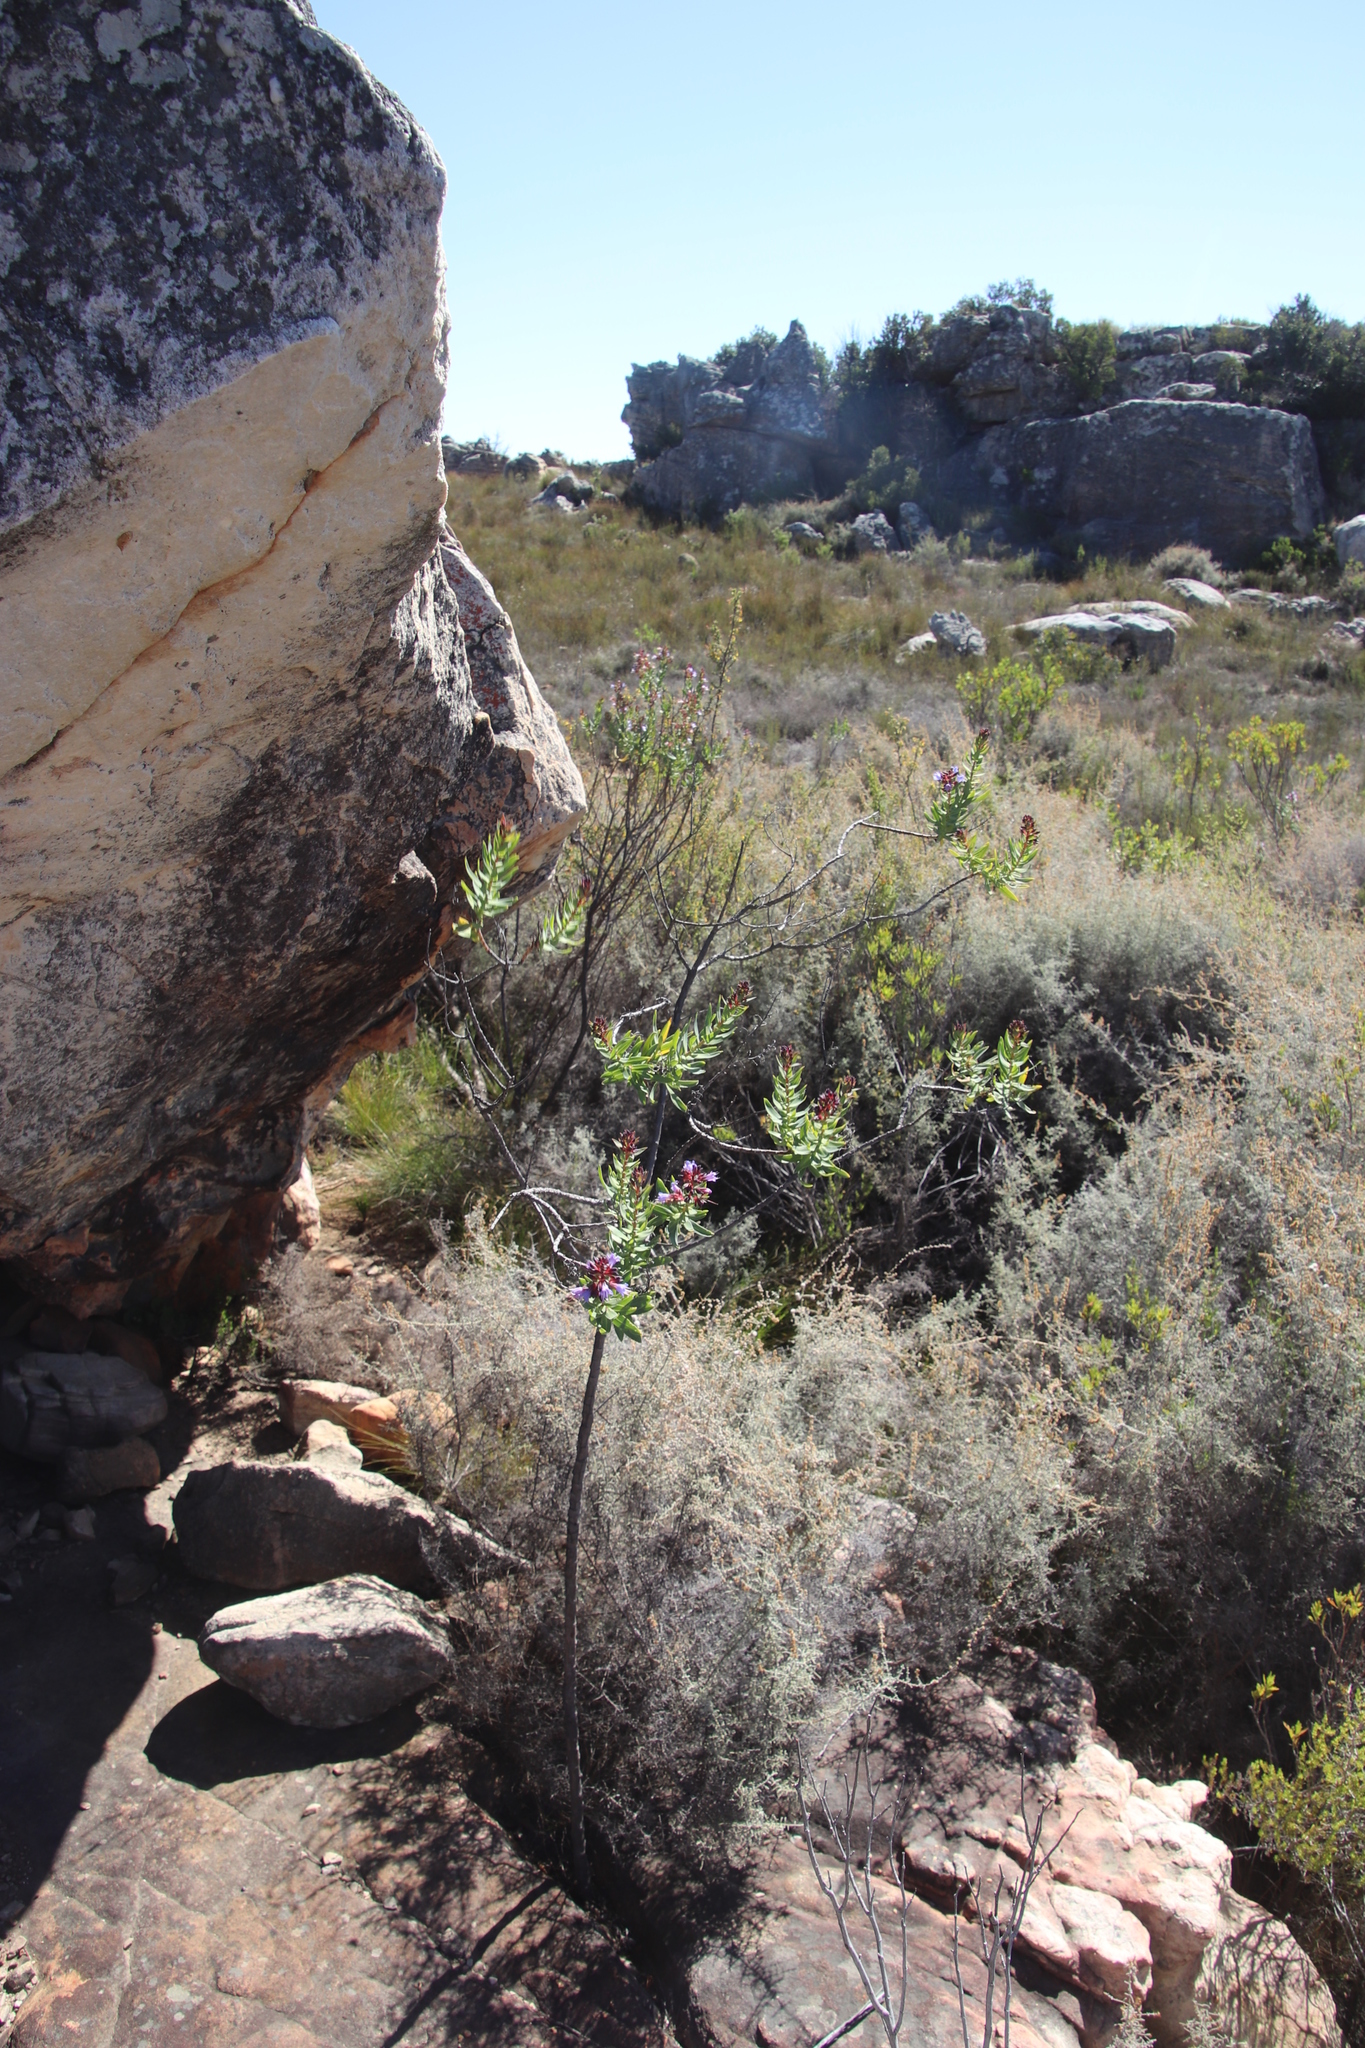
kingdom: Plantae
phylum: Tracheophyta
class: Magnoliopsida
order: Boraginales
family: Boraginaceae
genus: Lobostemon
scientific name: Lobostemon laevigatus
